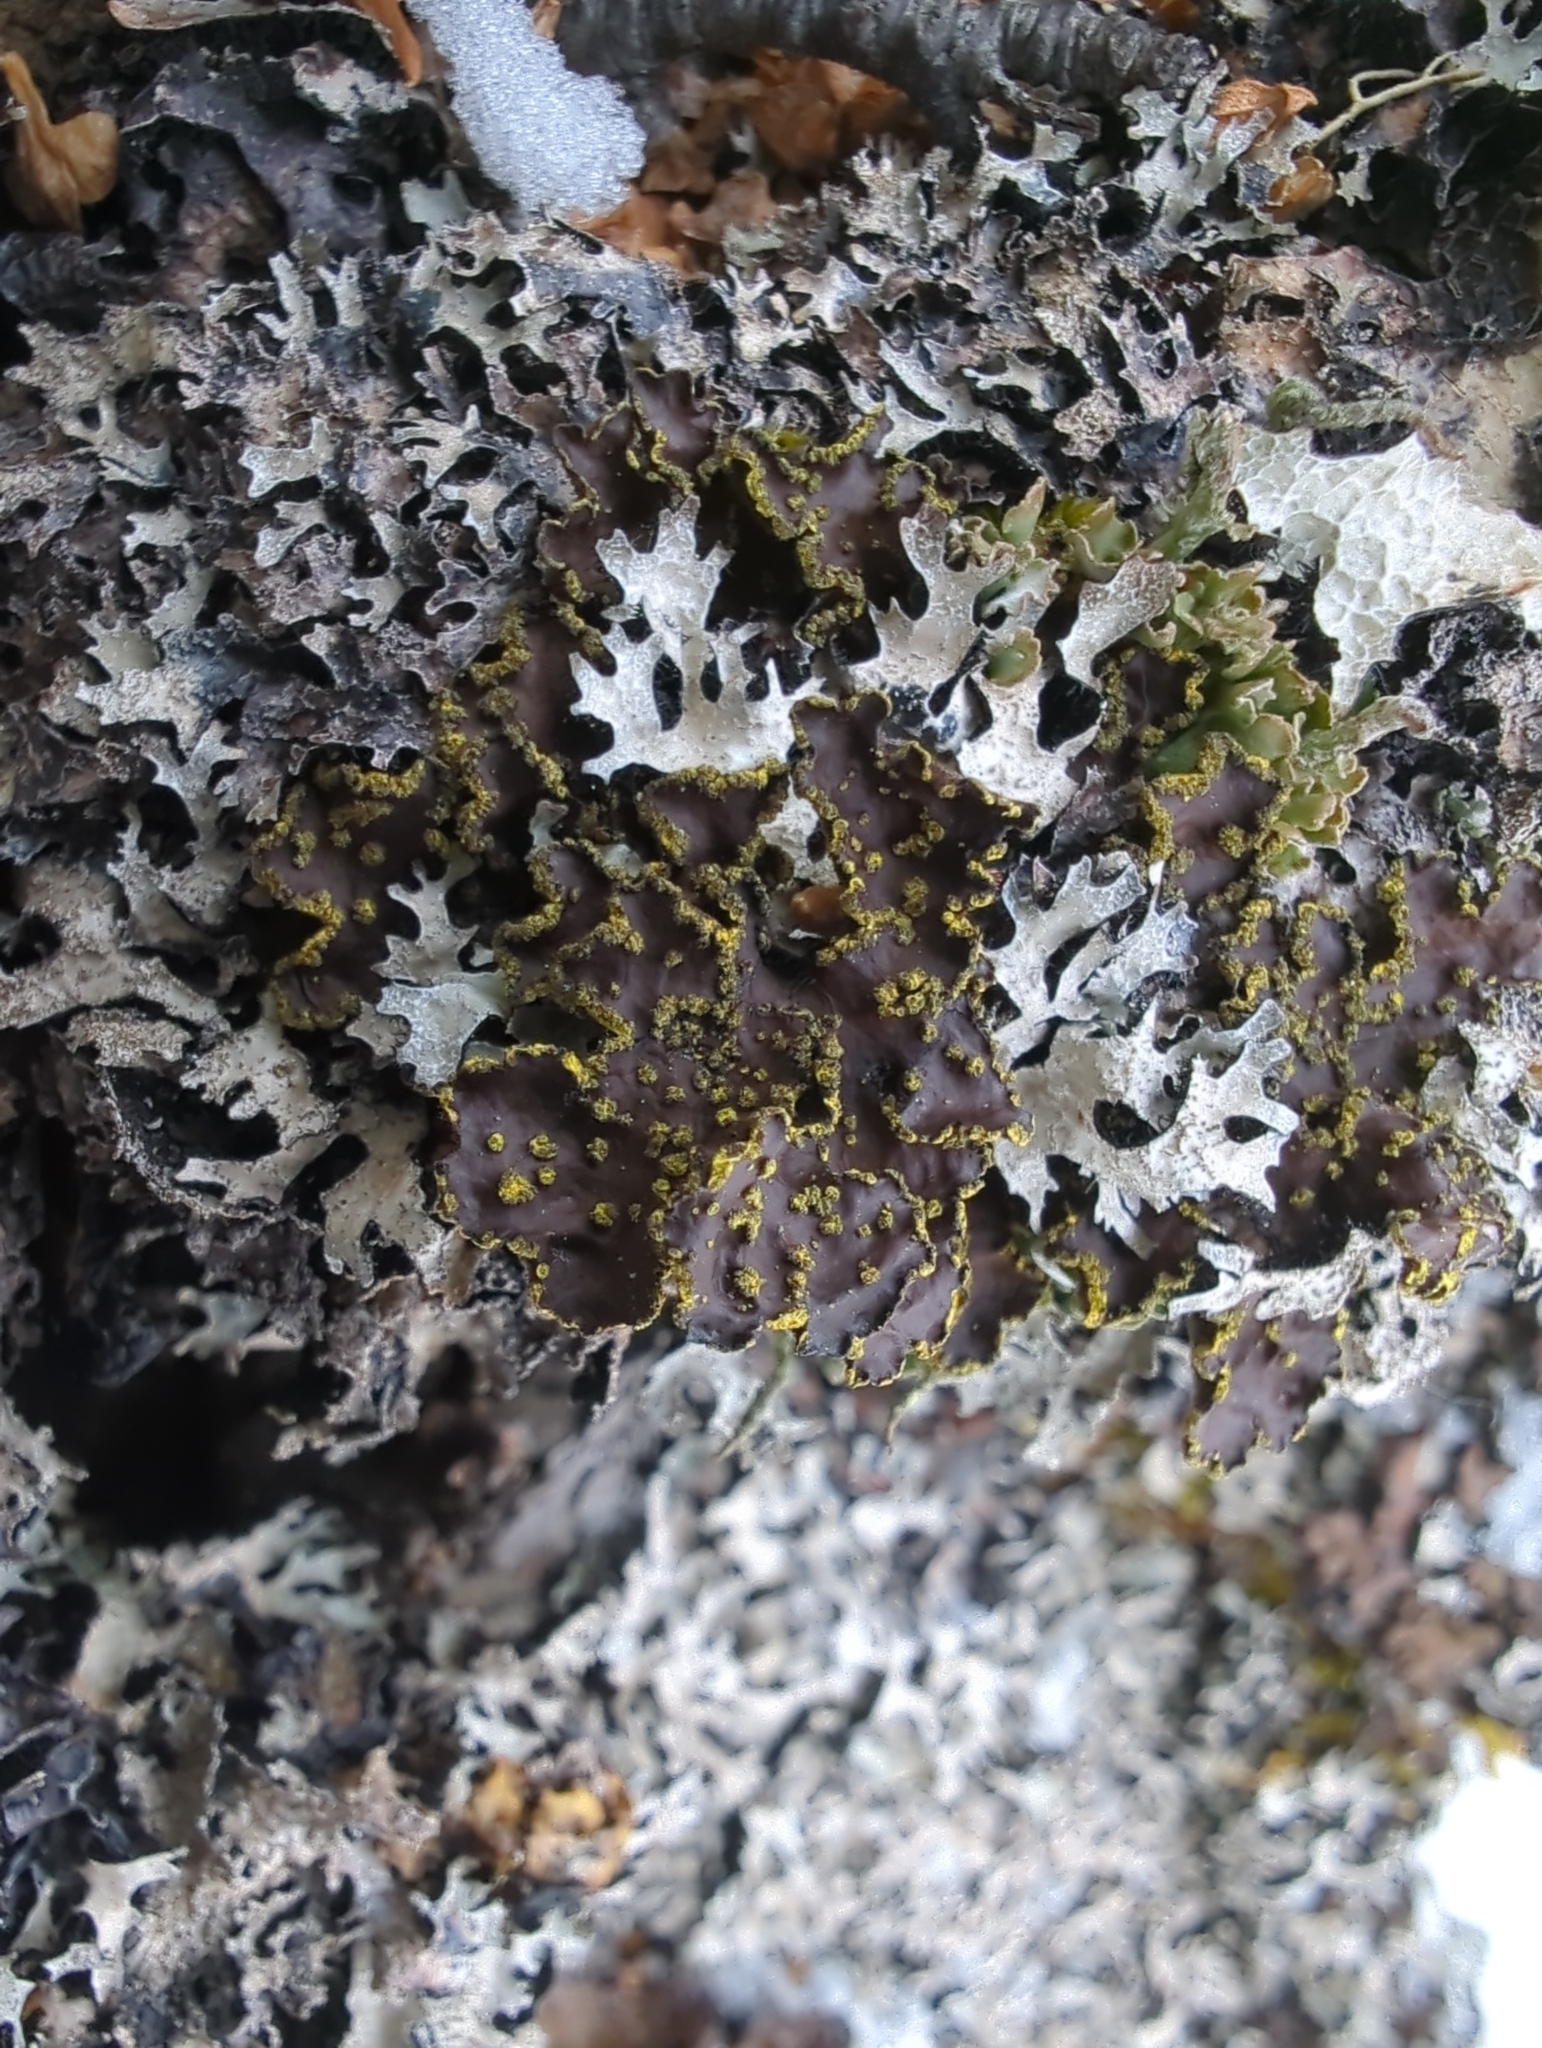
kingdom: Fungi
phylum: Ascomycota
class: Lecanoromycetes
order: Peltigerales
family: Lobariaceae
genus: Pseudocyphellaria
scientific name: Pseudocyphellaria crocata
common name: Golden specklebelly
